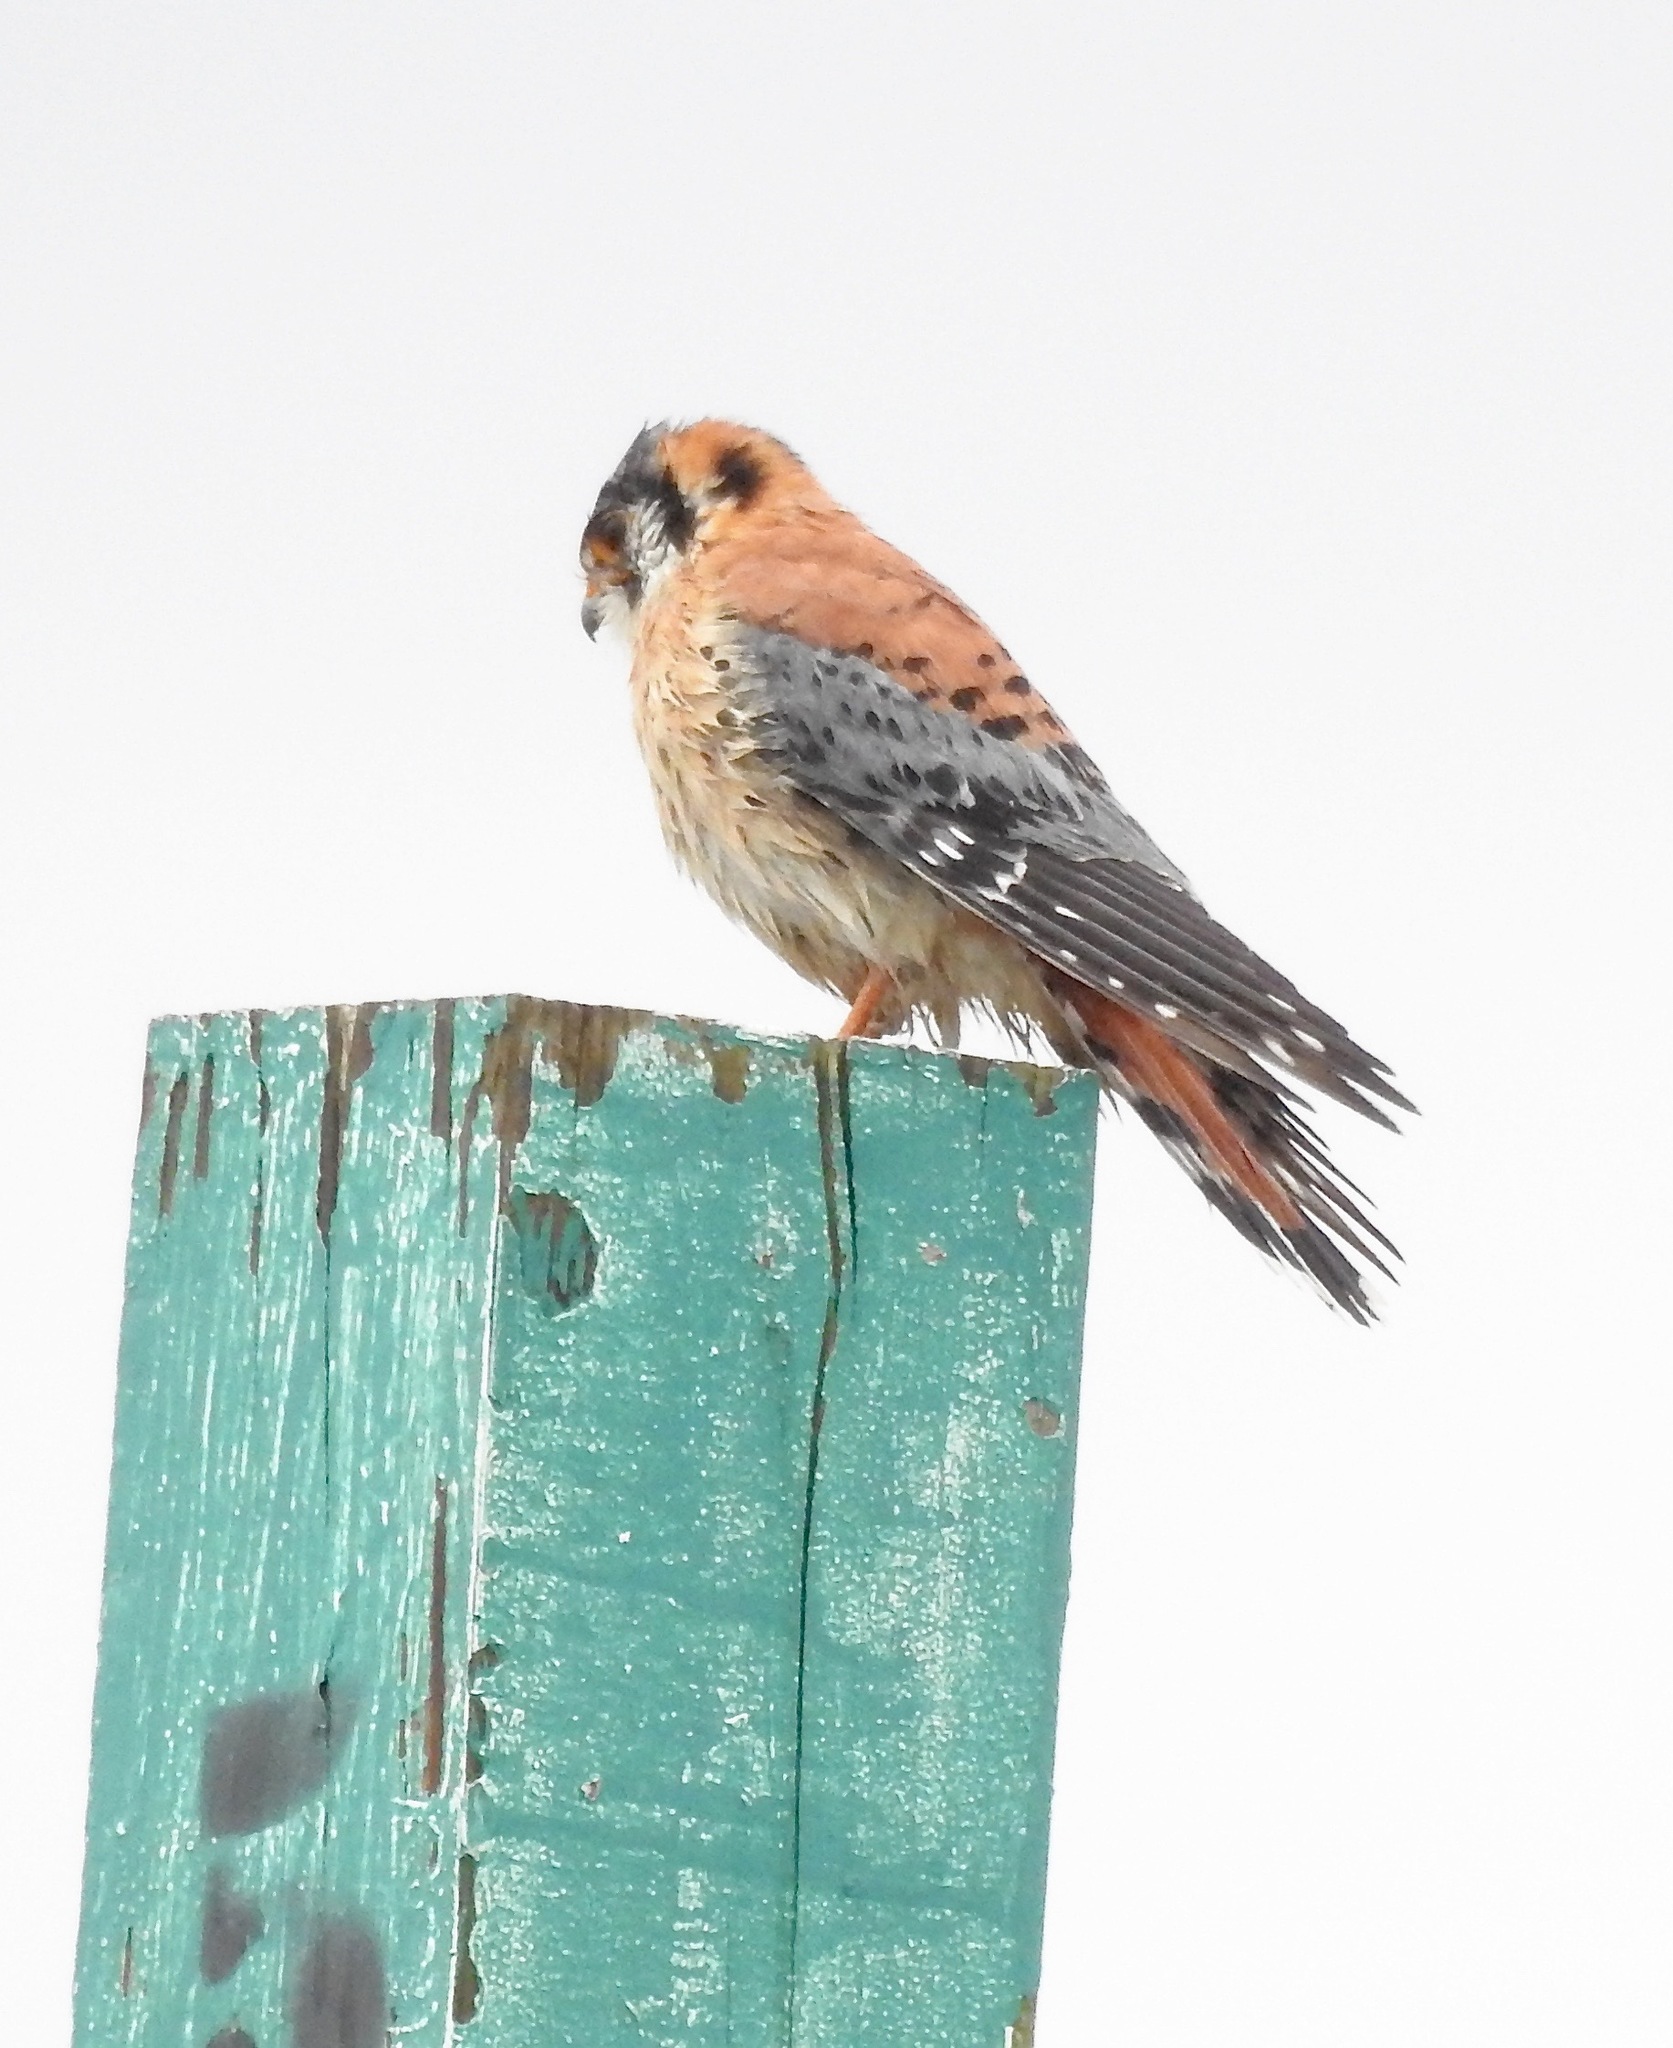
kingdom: Animalia
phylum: Chordata
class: Aves
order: Falconiformes
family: Falconidae
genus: Falco
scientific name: Falco sparverius
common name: American kestrel
